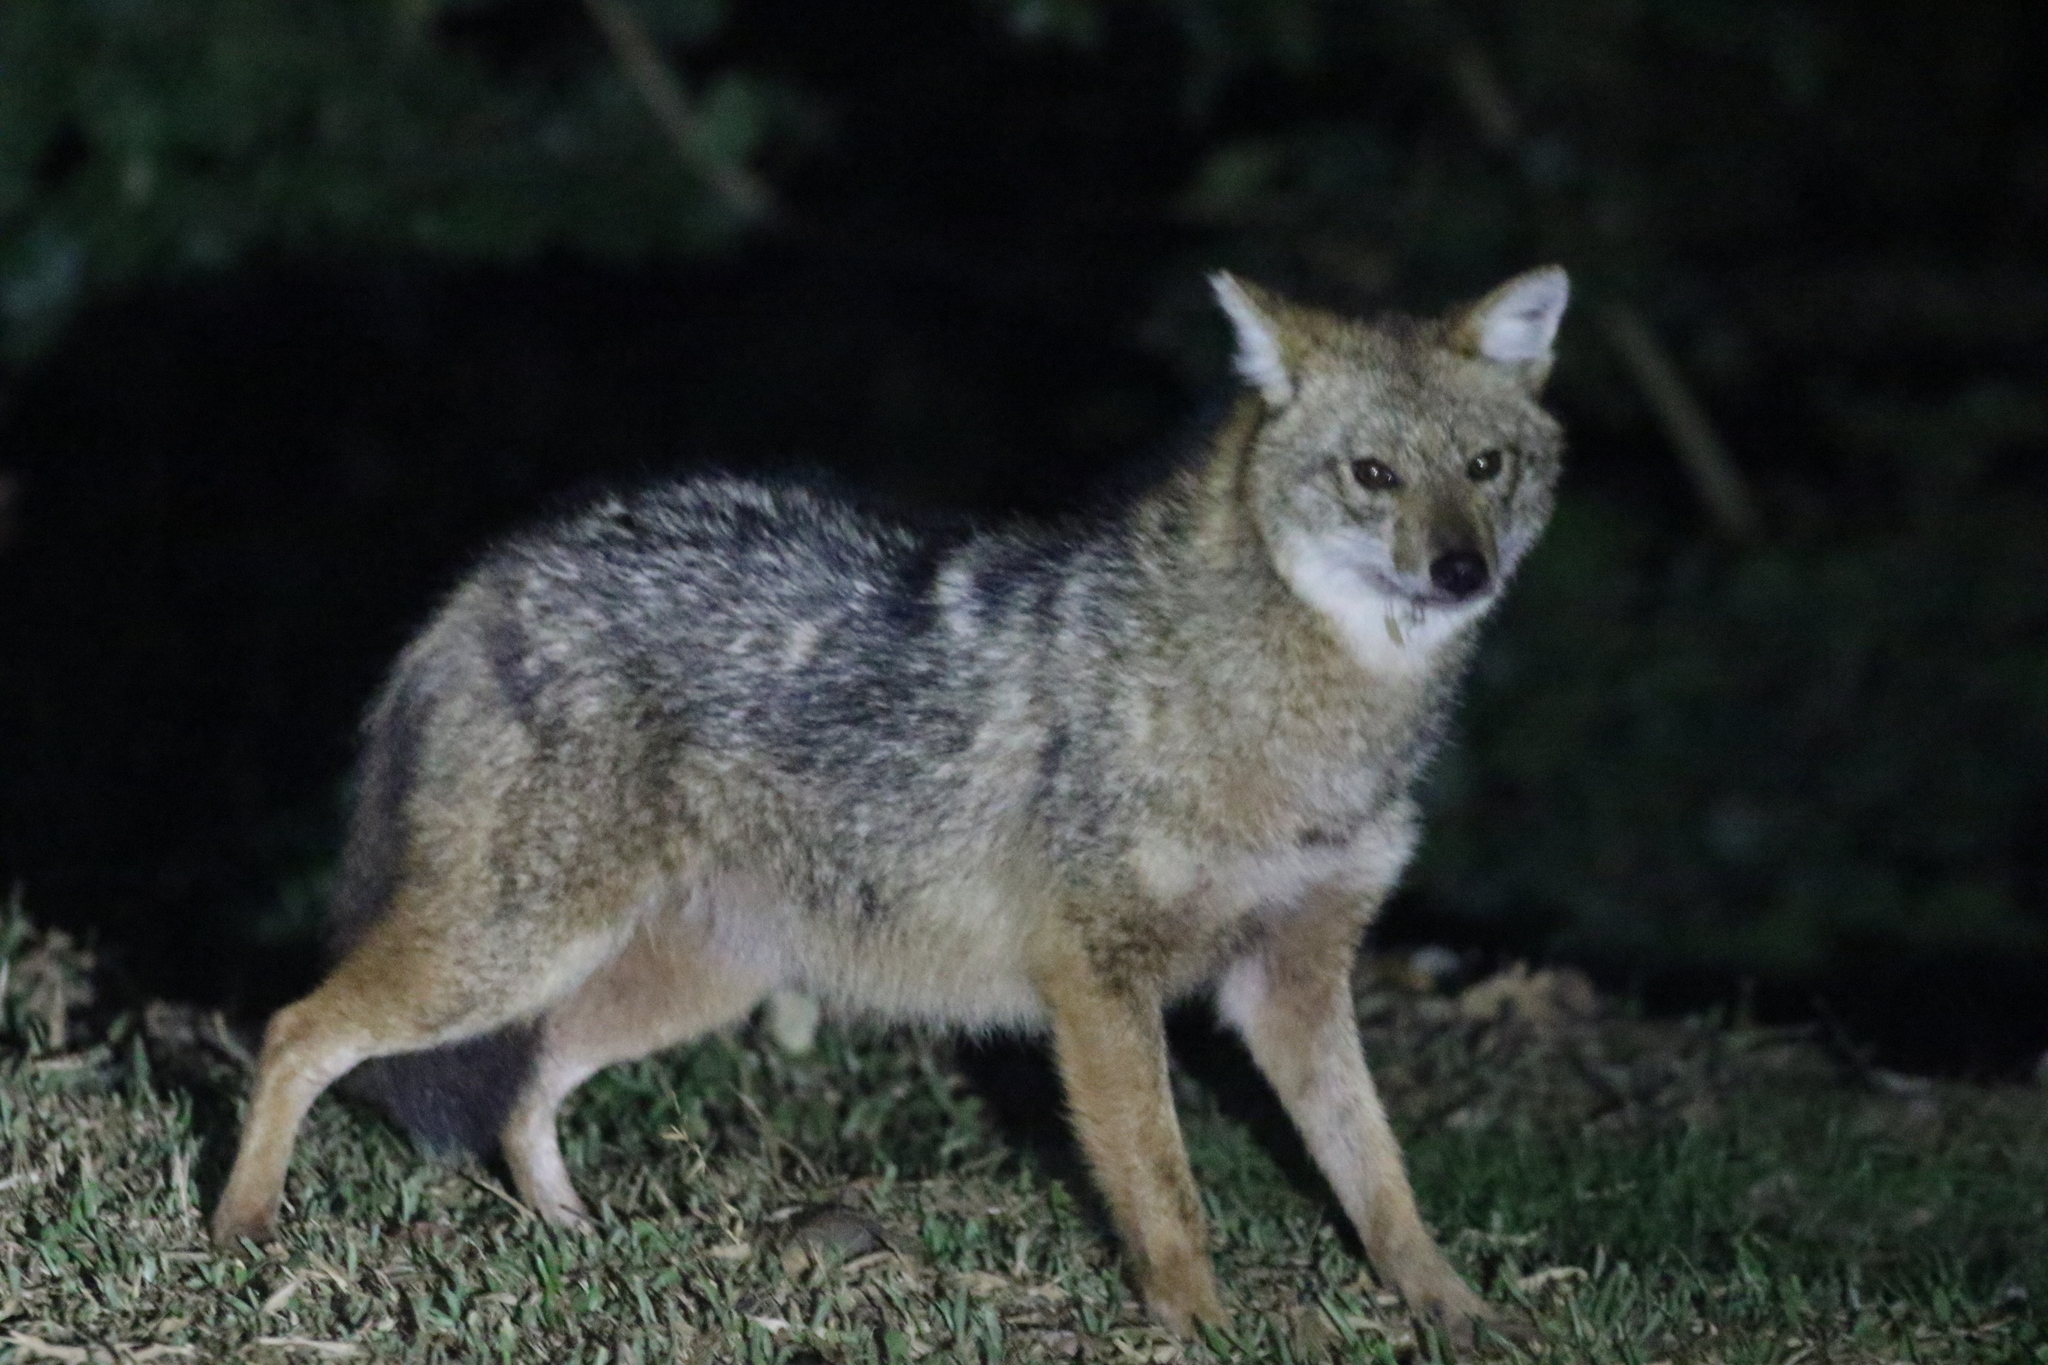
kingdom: Animalia
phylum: Chordata
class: Mammalia
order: Carnivora
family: Canidae
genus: Canis
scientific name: Canis aureus
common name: Golden jackal
